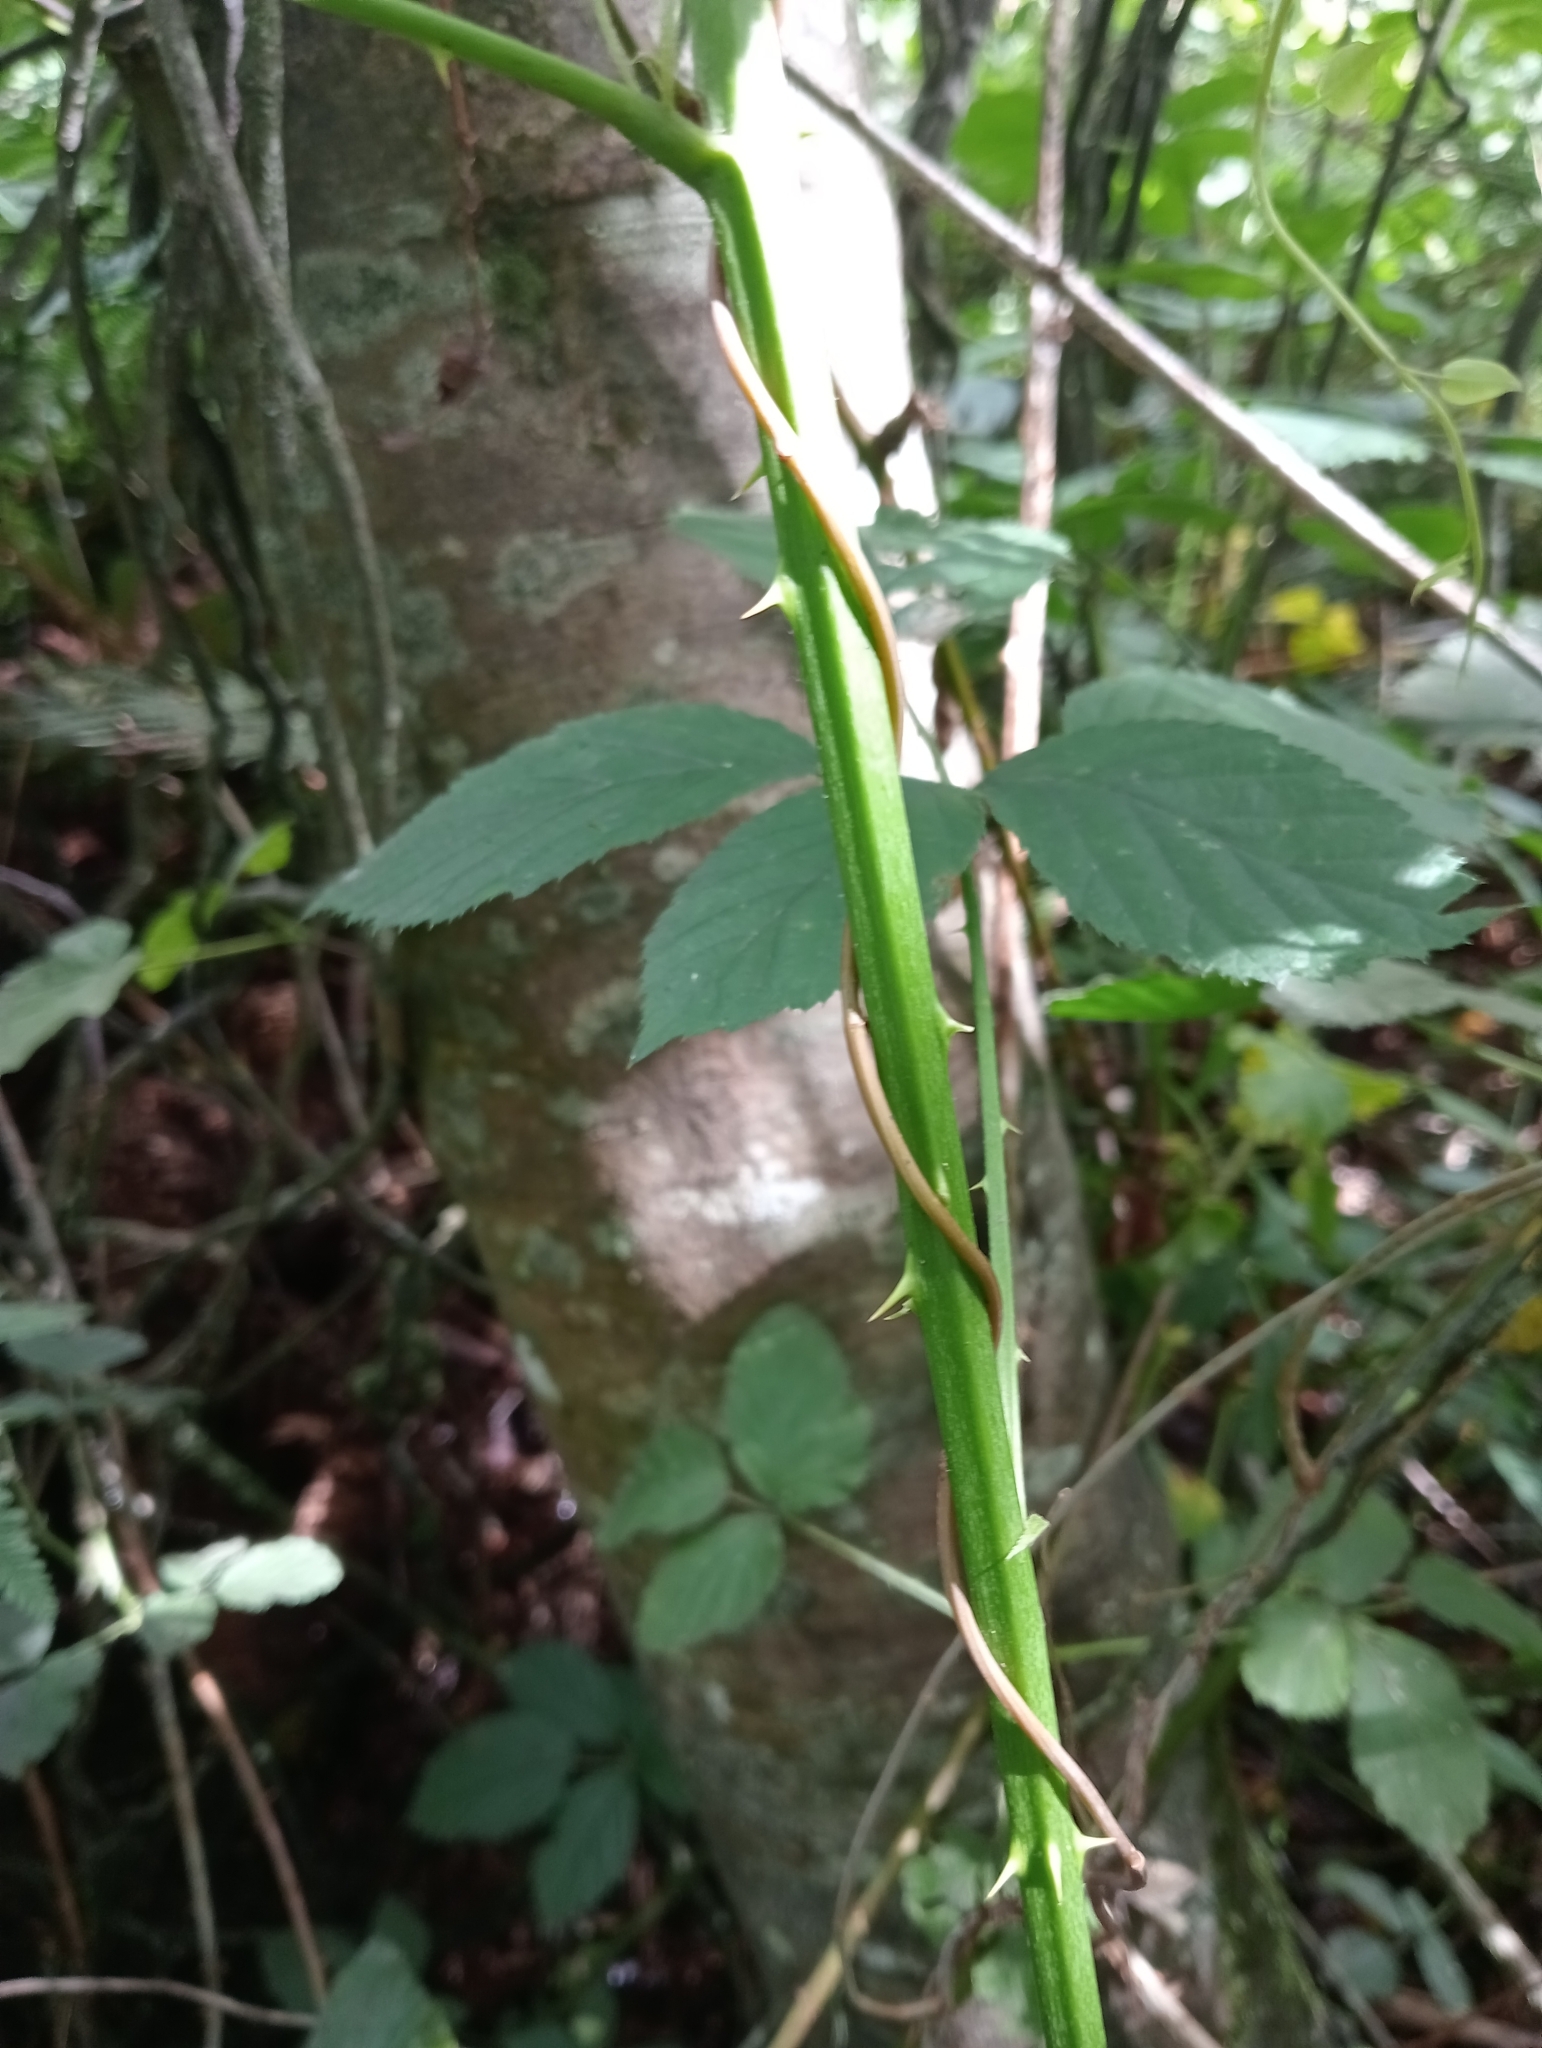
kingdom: Plantae
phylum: Tracheophyta
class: Magnoliopsida
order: Caryophyllales
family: Polygonaceae
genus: Muehlenbeckia
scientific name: Muehlenbeckia australis
